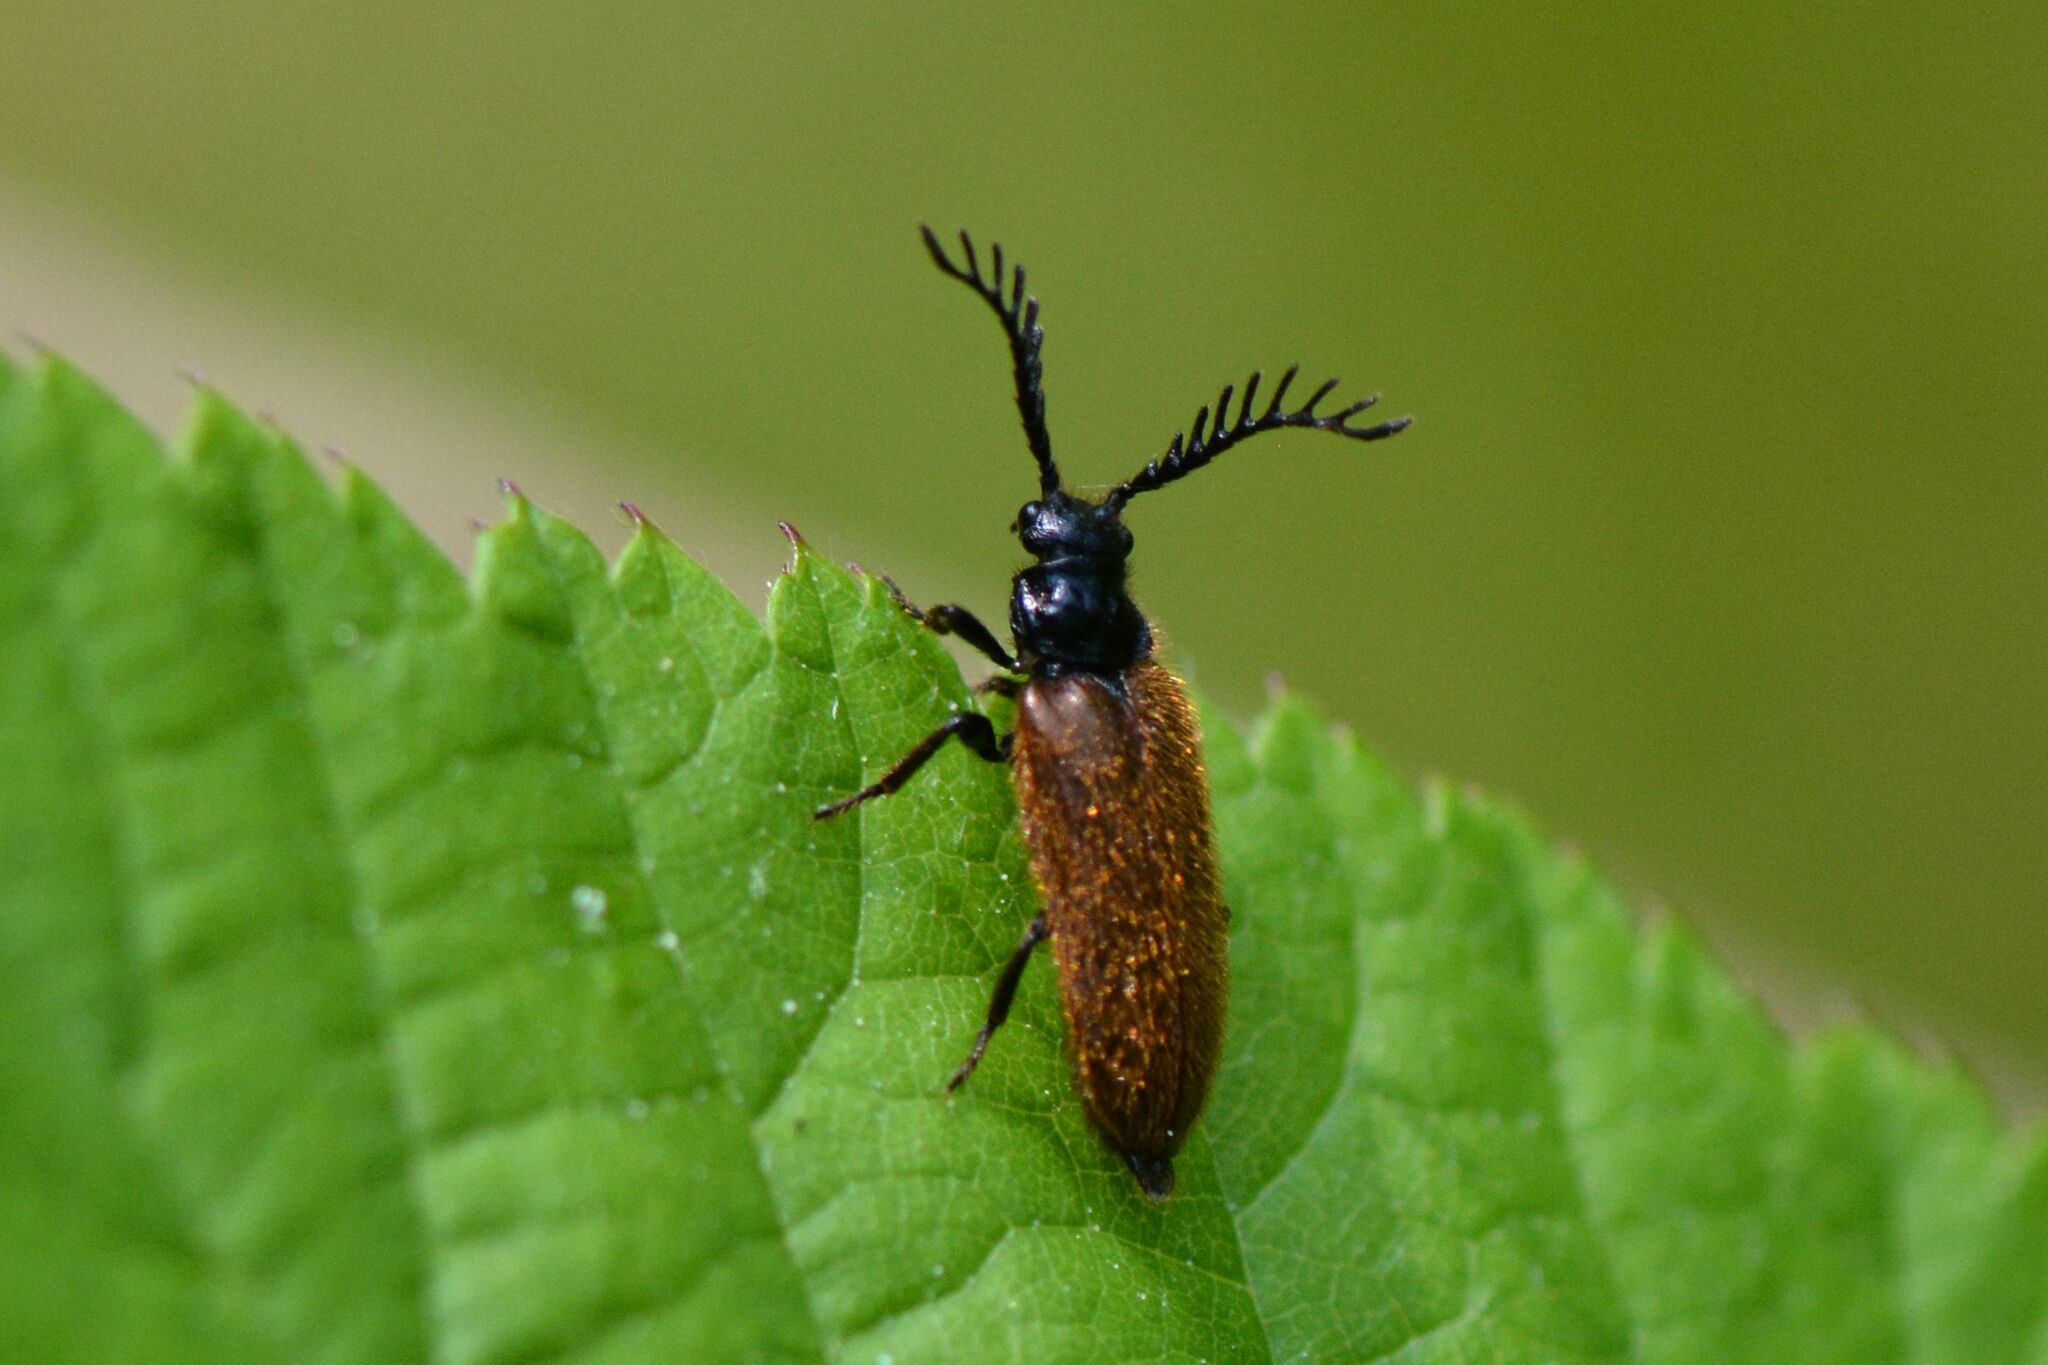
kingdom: Animalia
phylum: Arthropoda
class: Insecta
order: Coleoptera
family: Drilidae
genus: Drilus
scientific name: Drilus flavescens
